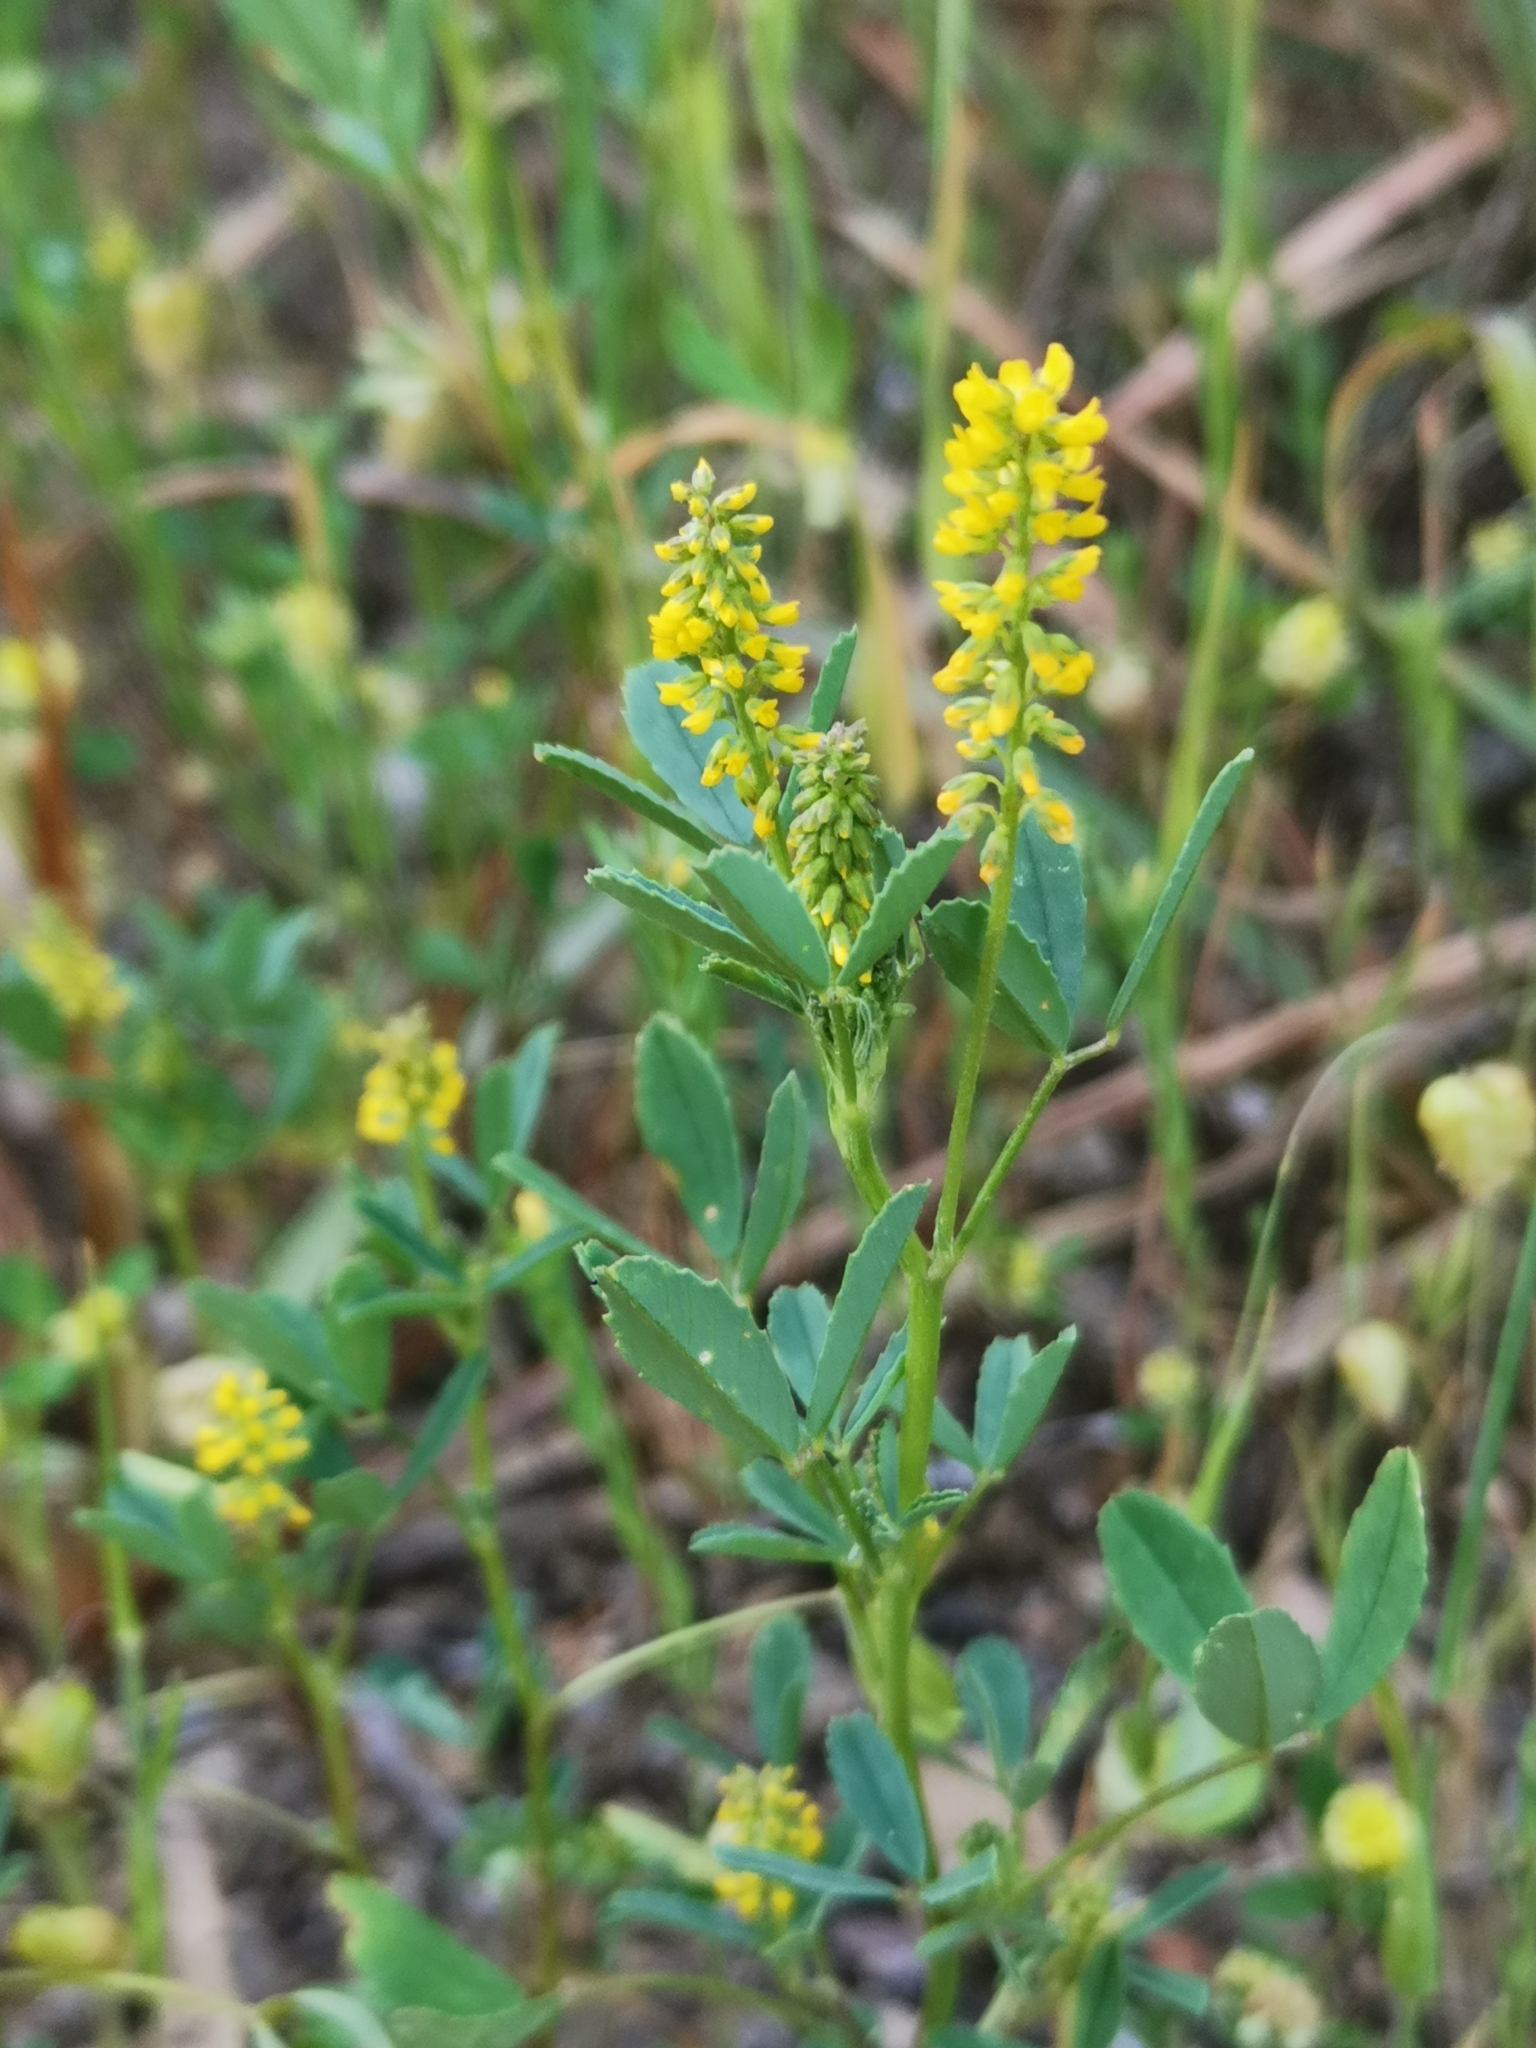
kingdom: Plantae
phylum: Tracheophyta
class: Magnoliopsida
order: Fabales
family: Fabaceae
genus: Melilotus
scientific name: Melilotus indicus
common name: Small melilot
